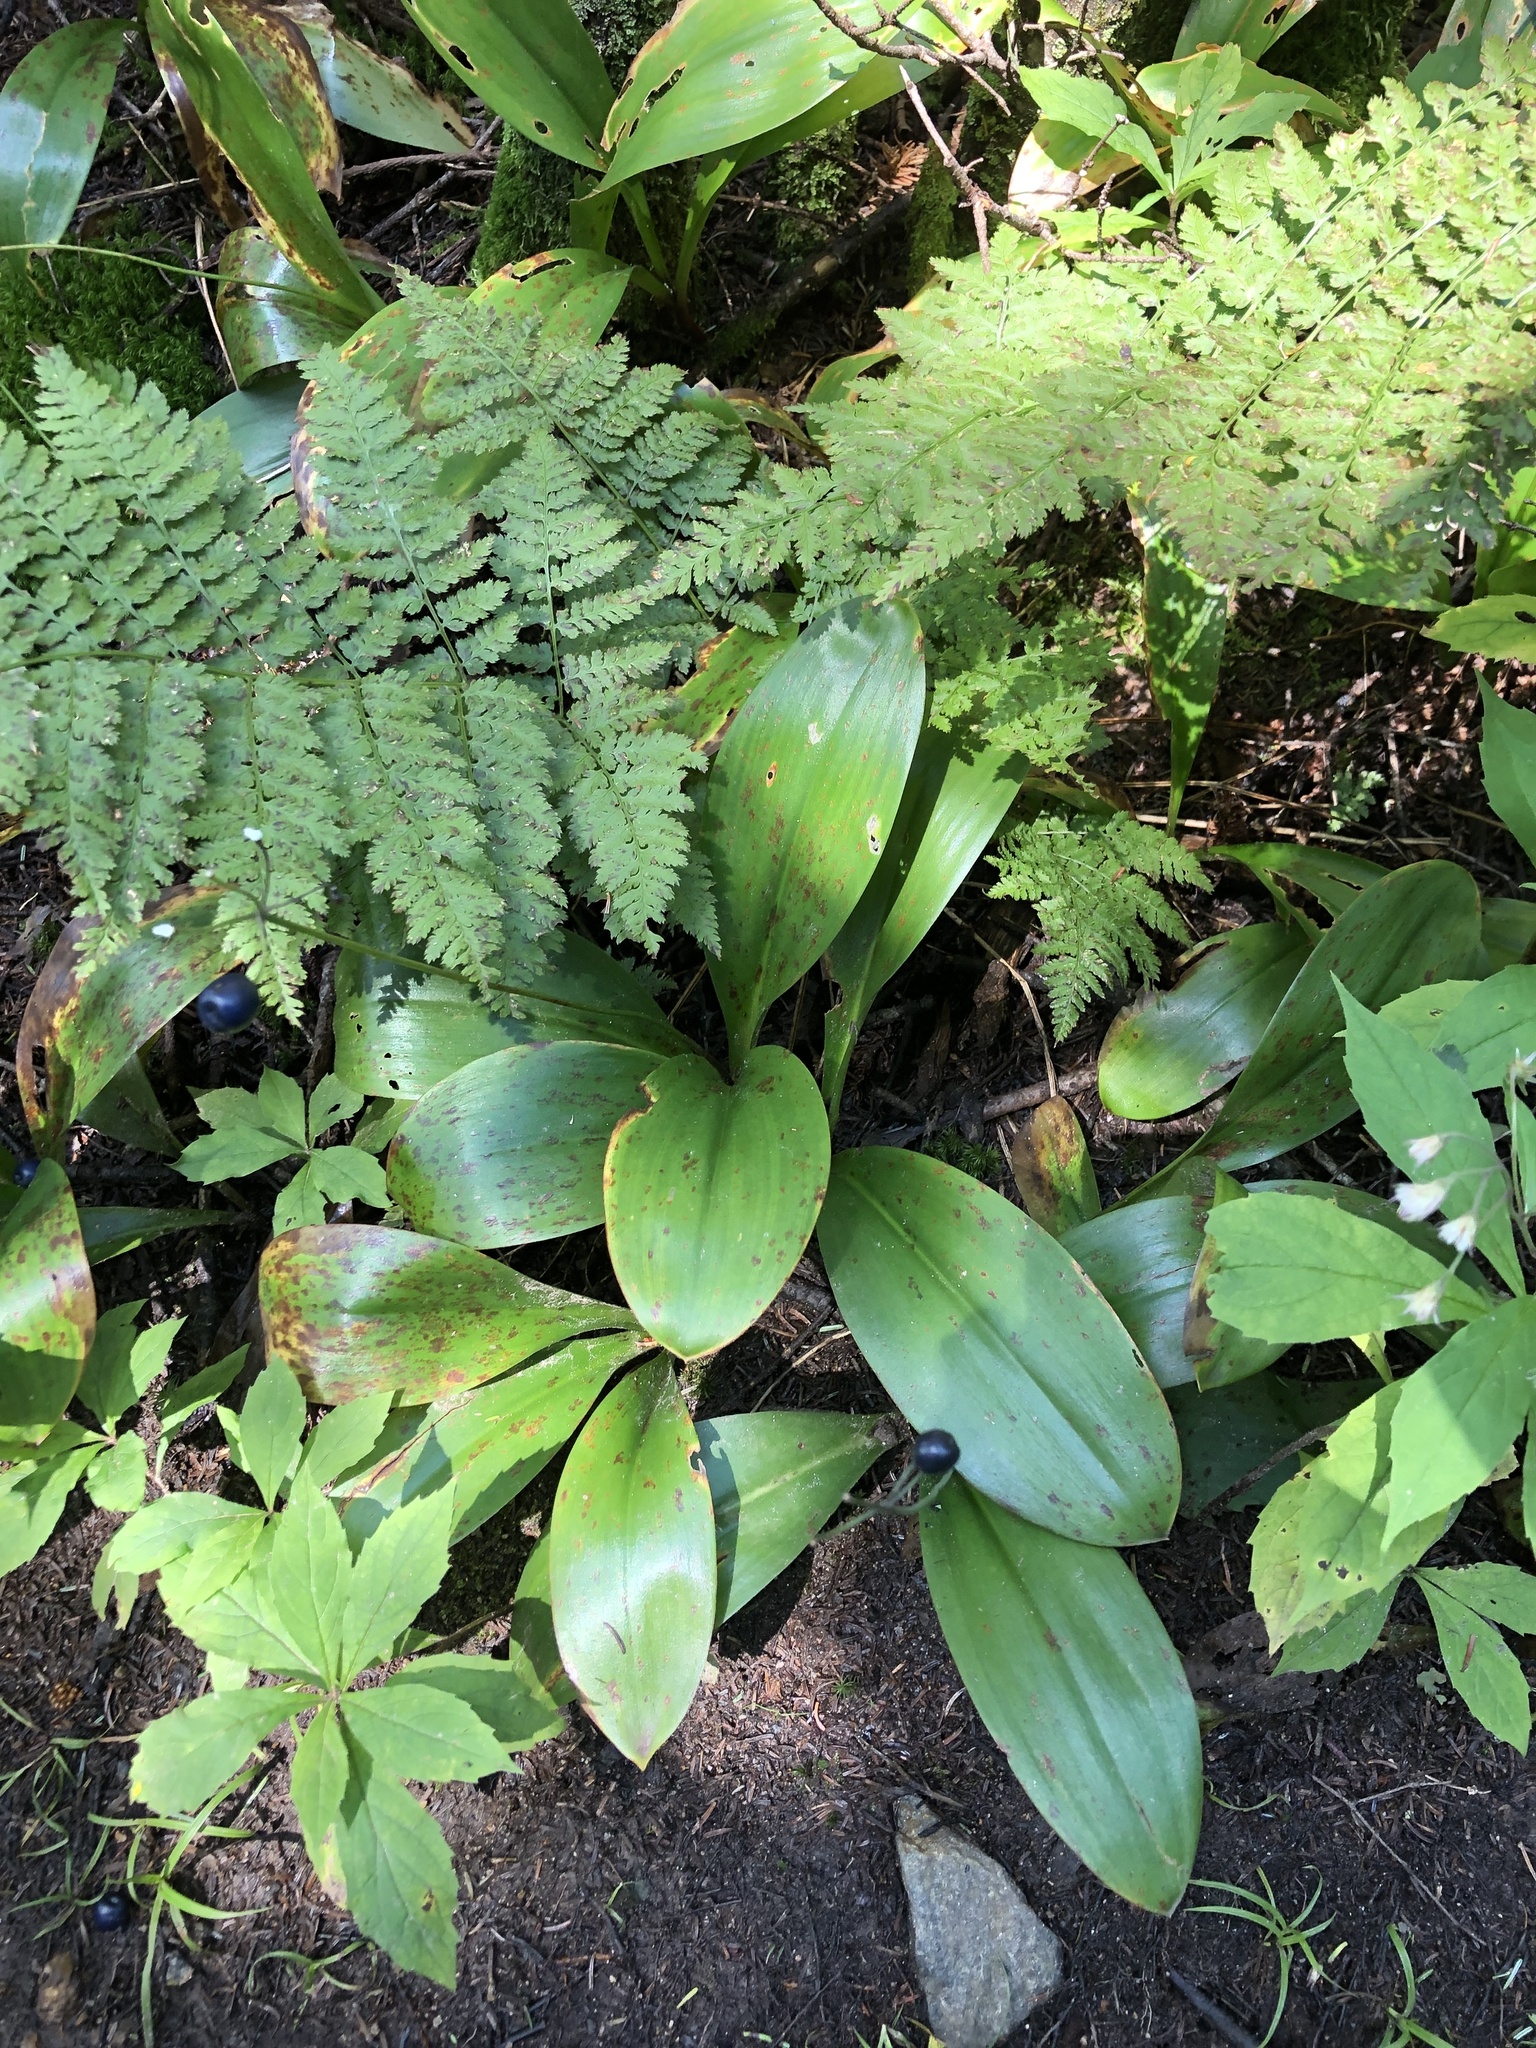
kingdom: Plantae
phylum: Tracheophyta
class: Liliopsida
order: Liliales
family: Liliaceae
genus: Clintonia
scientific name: Clintonia borealis
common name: Yellow clintonia
